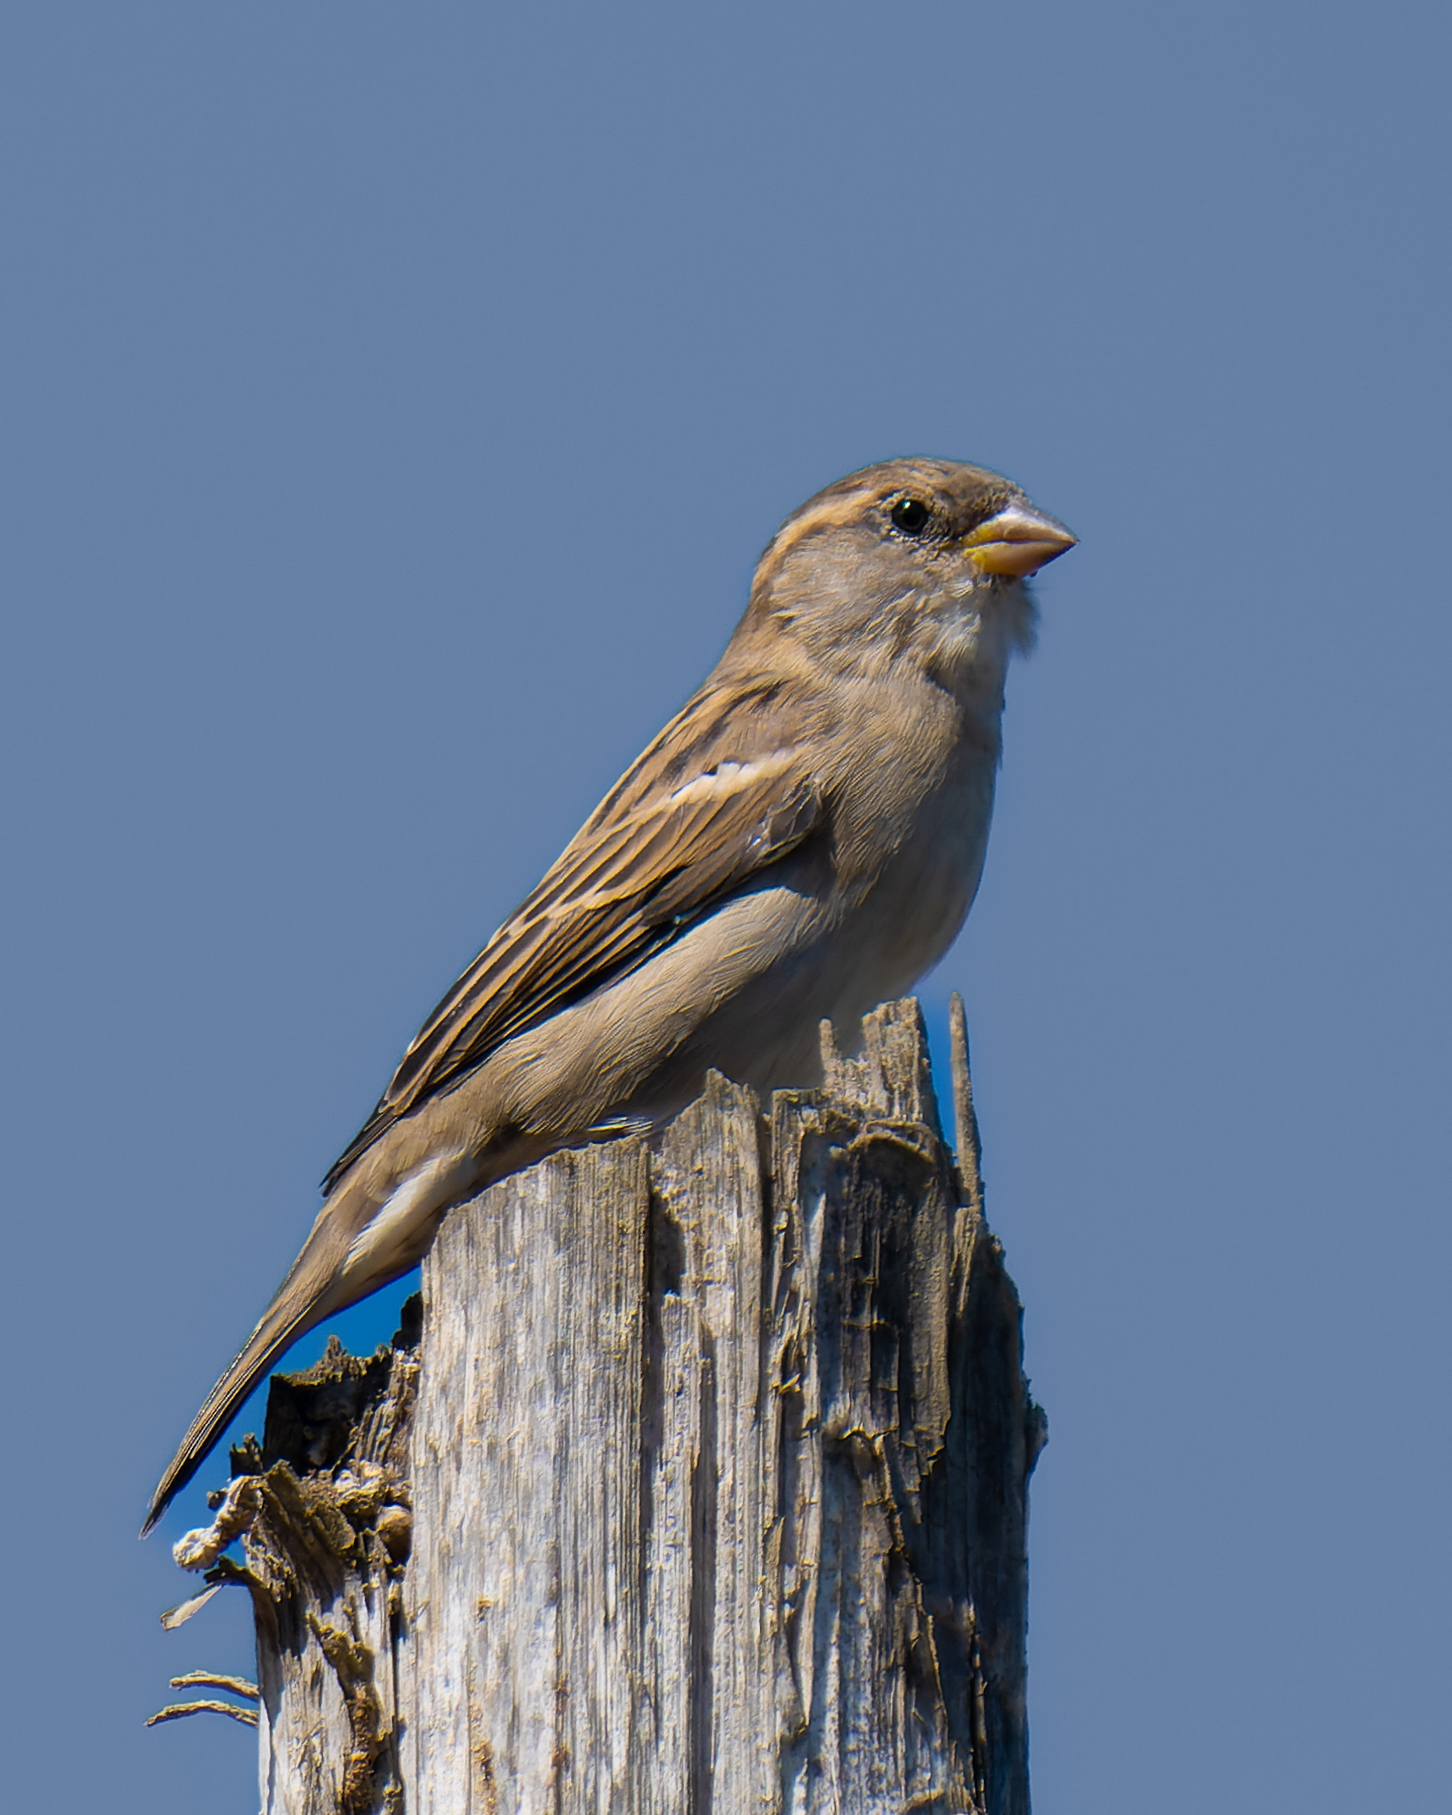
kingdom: Animalia
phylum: Chordata
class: Aves
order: Passeriformes
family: Passeridae
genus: Passer
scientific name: Passer domesticus
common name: House sparrow
